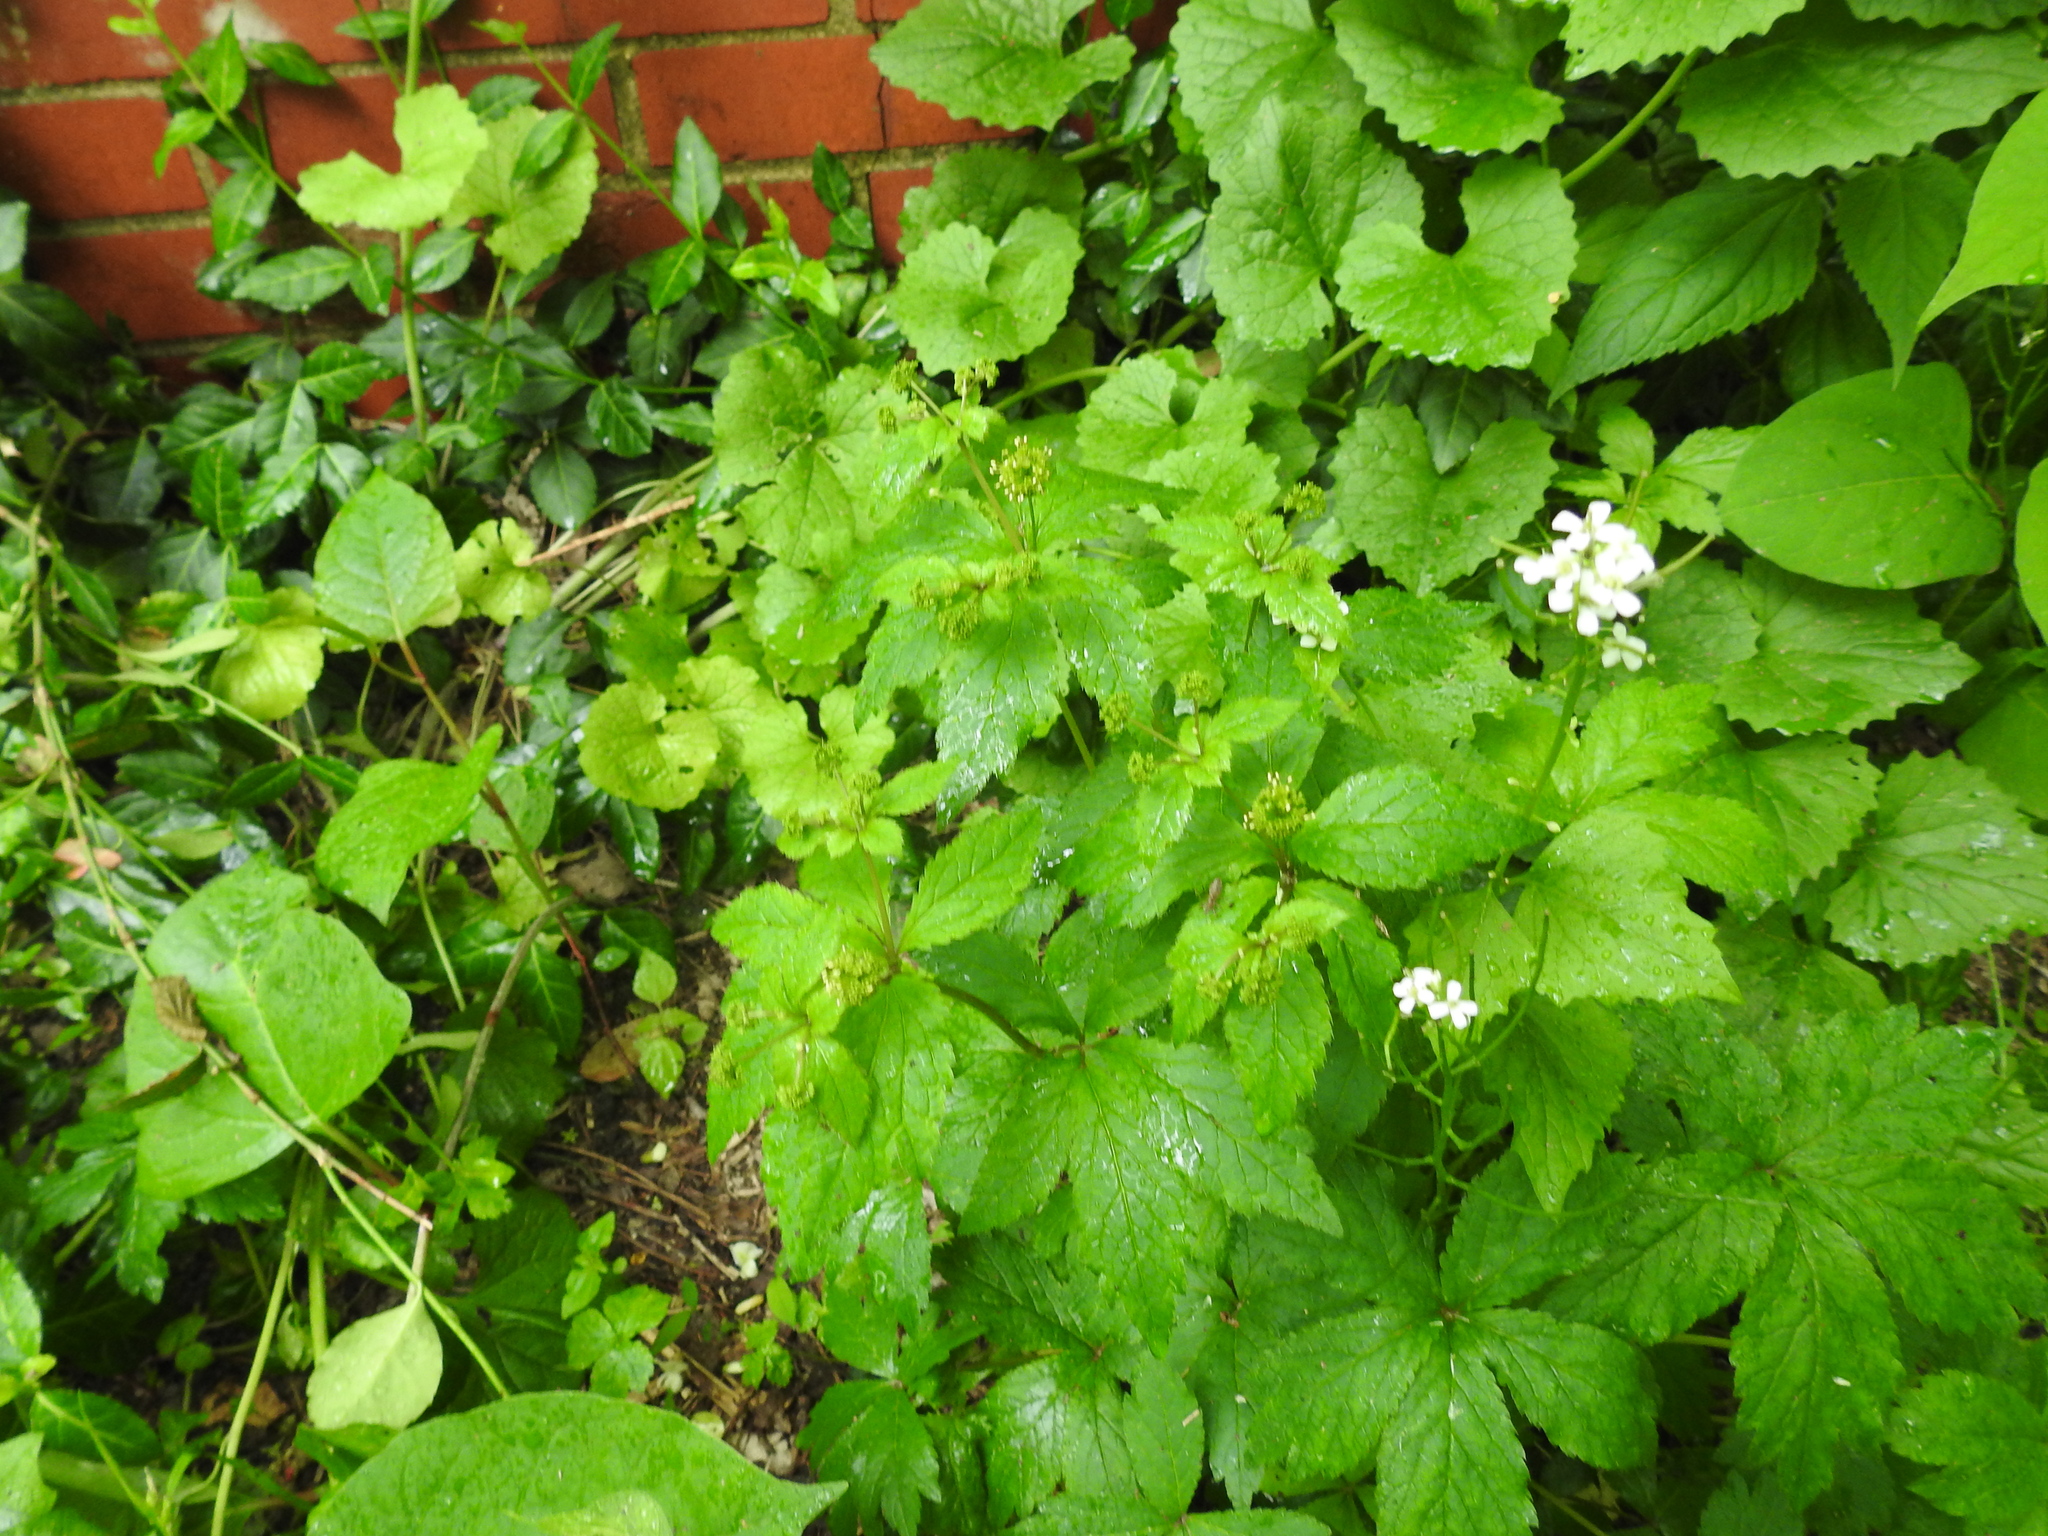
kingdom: Plantae
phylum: Tracheophyta
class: Magnoliopsida
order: Brassicales
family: Brassicaceae
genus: Alliaria
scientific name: Alliaria petiolata
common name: Garlic mustard
